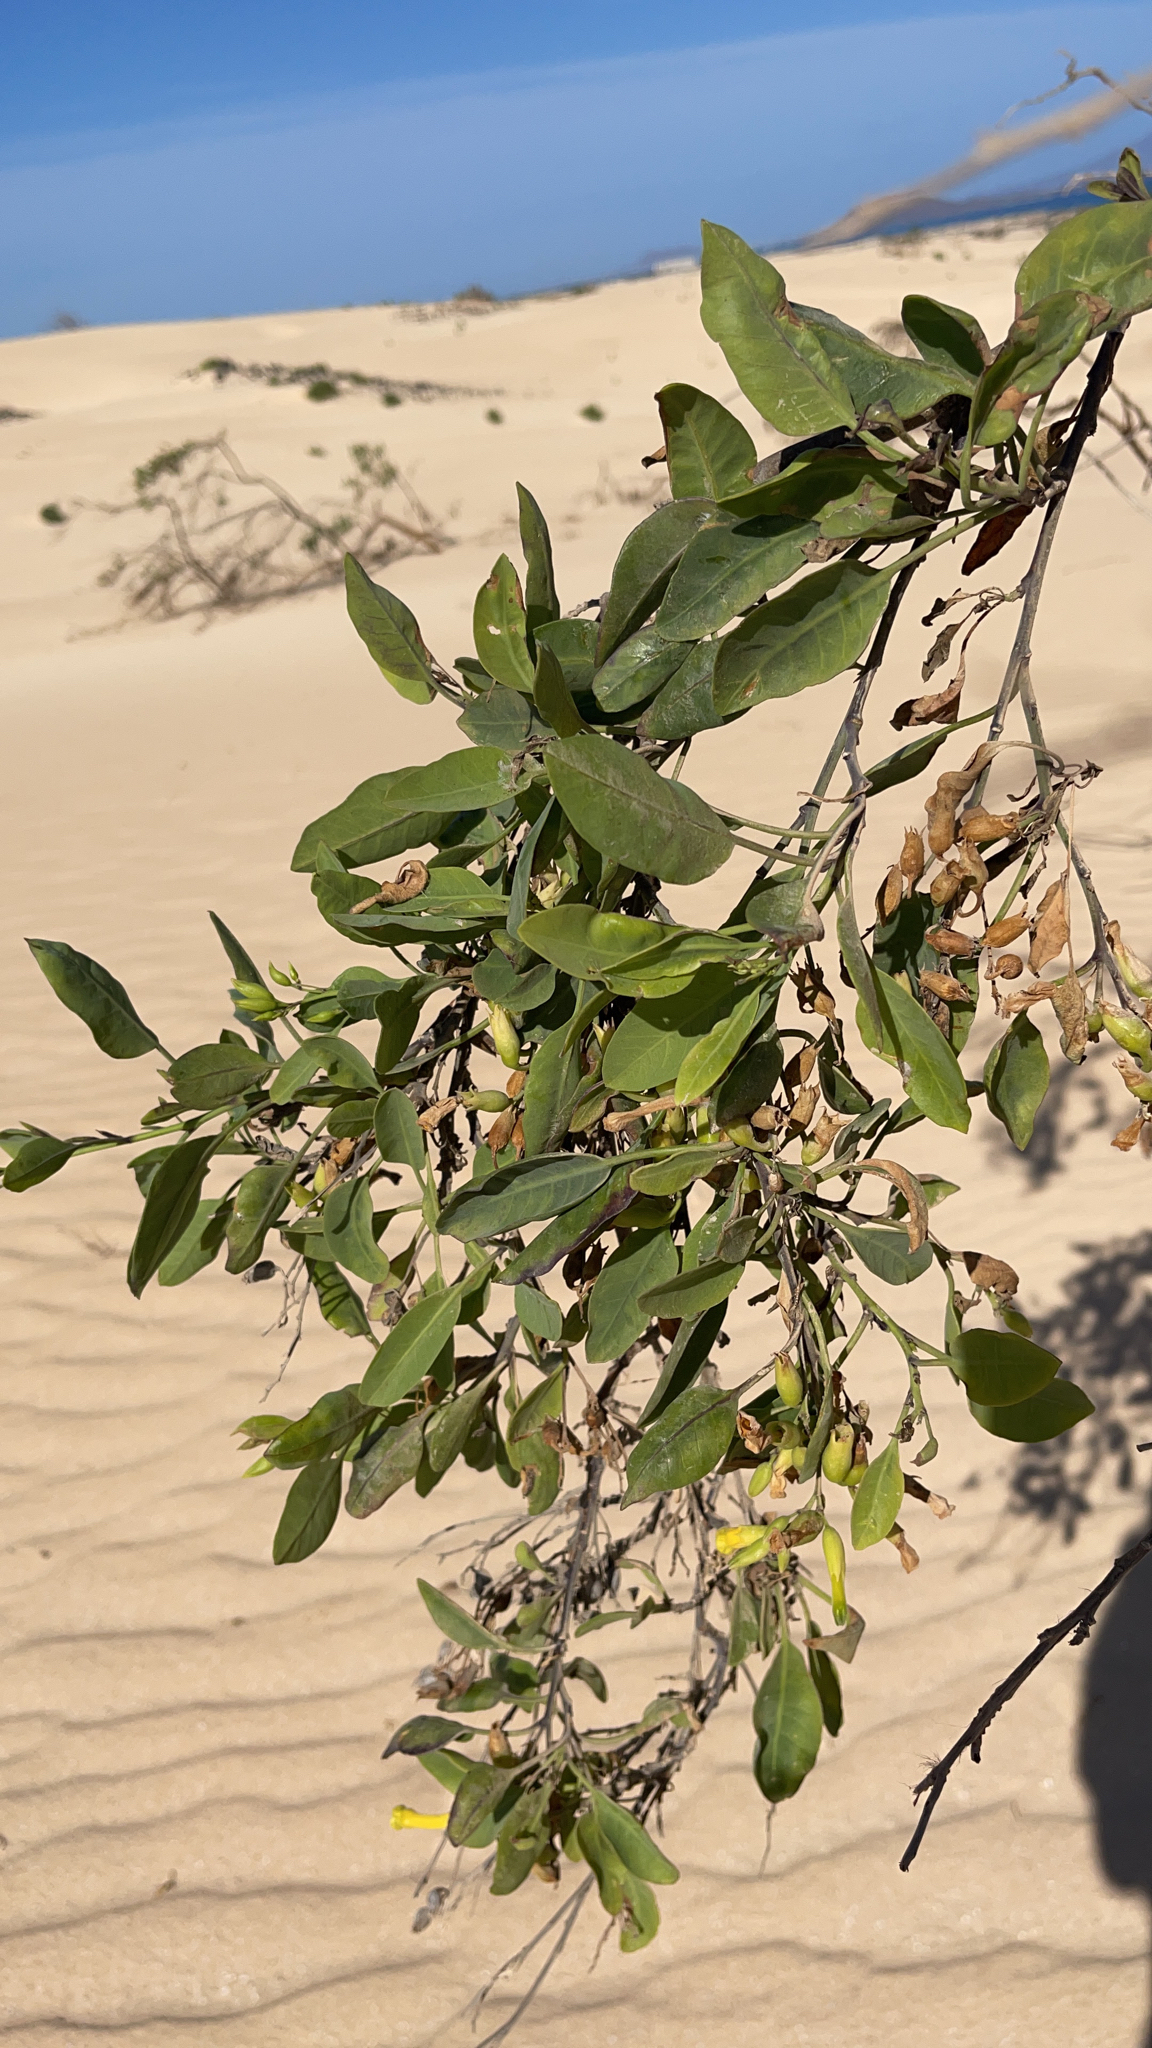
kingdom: Plantae
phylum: Tracheophyta
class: Magnoliopsida
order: Solanales
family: Solanaceae
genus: Nicotiana
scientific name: Nicotiana glauca
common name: Tree tobacco
